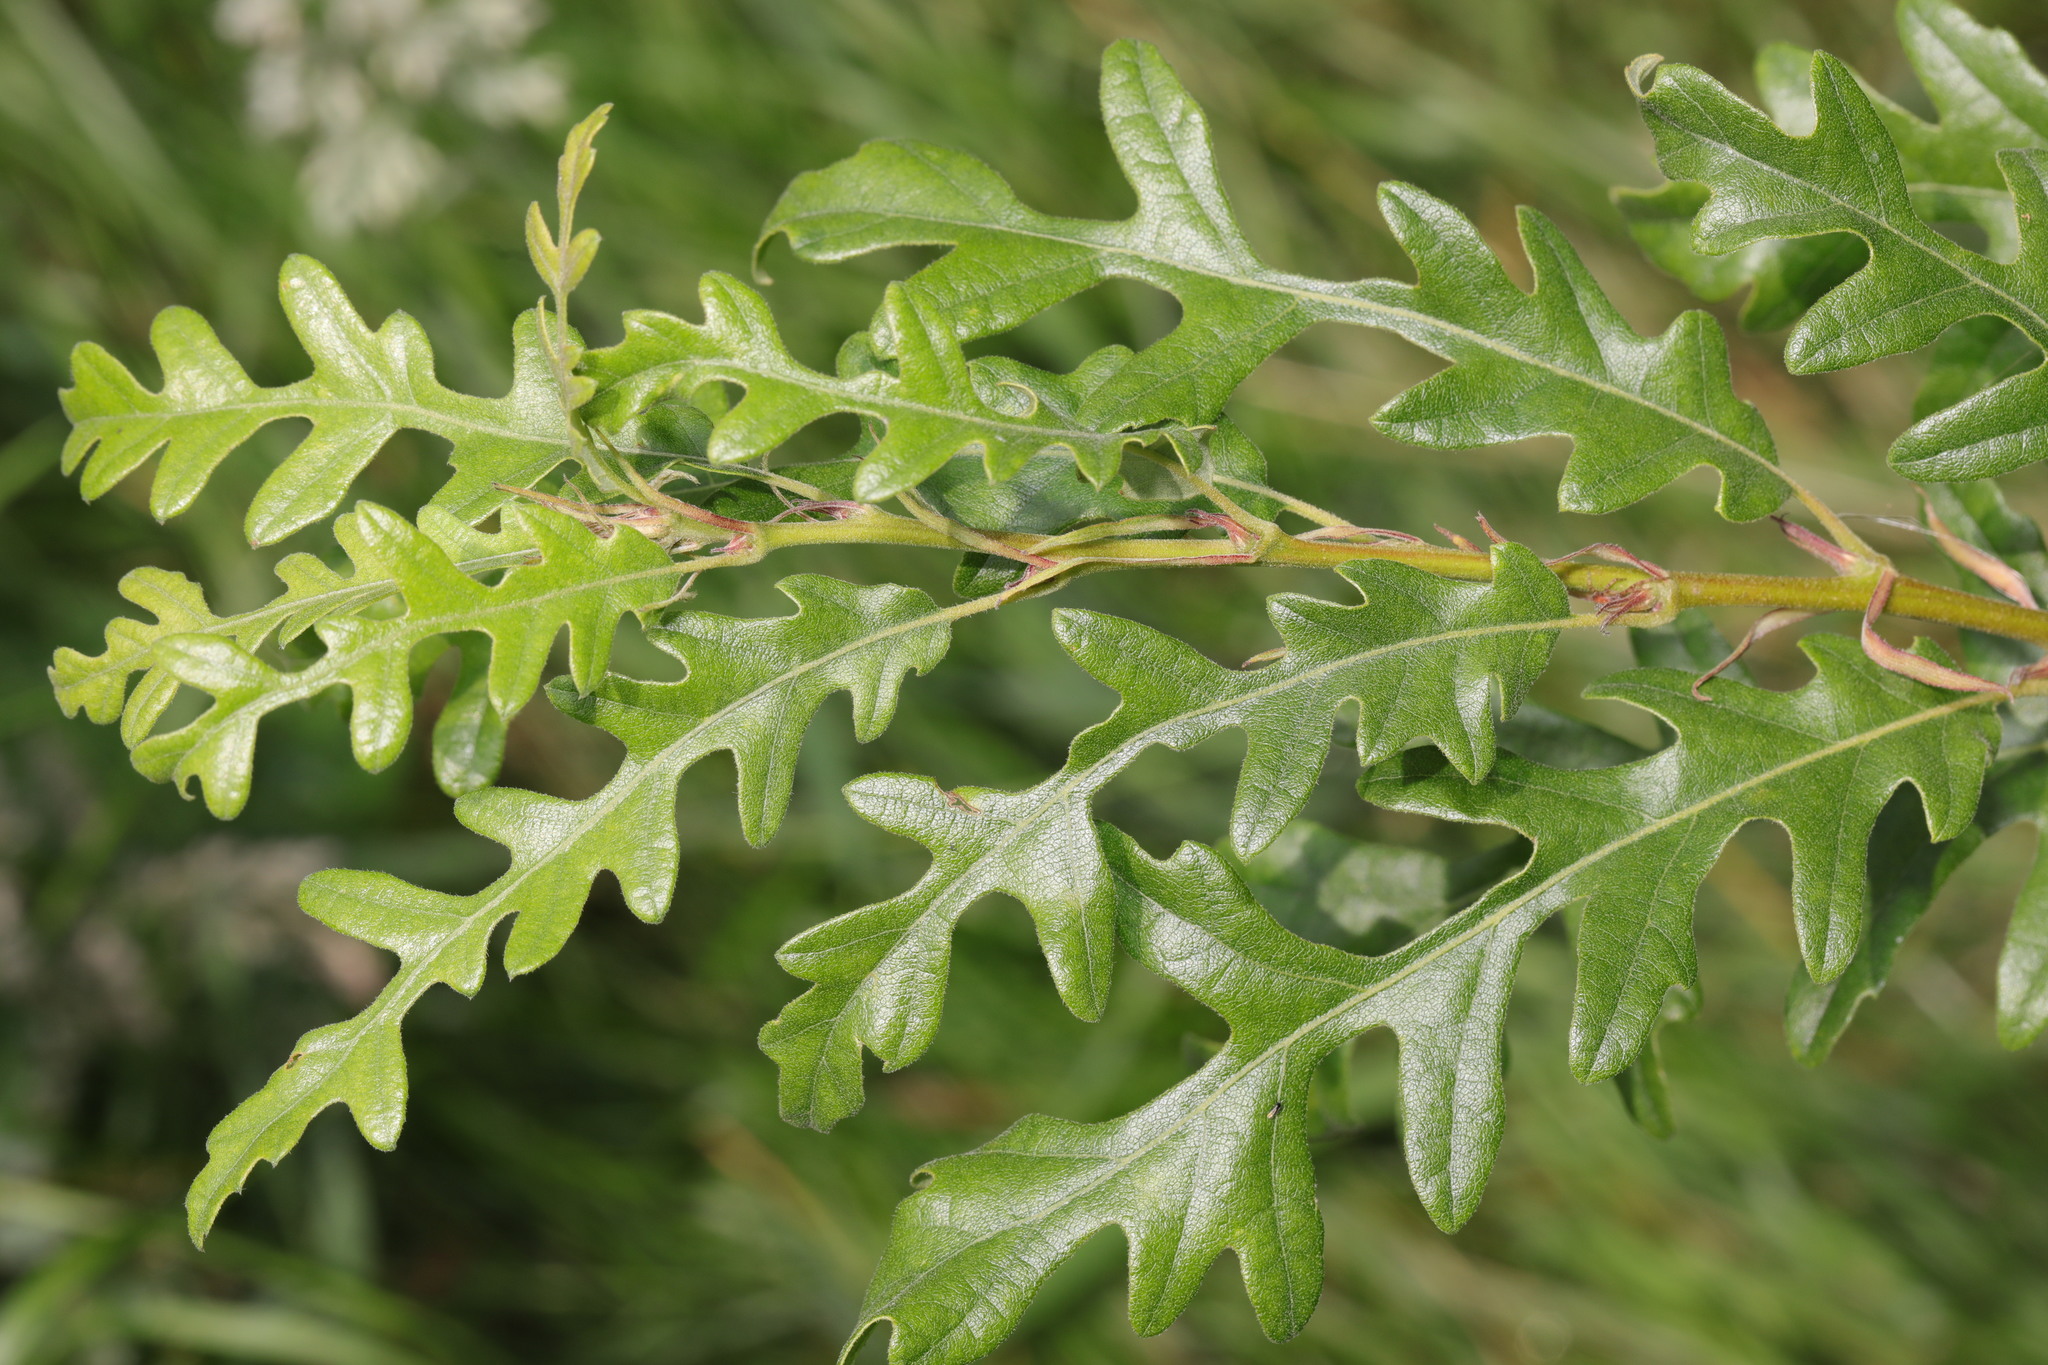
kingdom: Plantae
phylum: Tracheophyta
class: Magnoliopsida
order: Fagales
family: Fagaceae
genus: Quercus
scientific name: Quercus cerris
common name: Turkey oak
